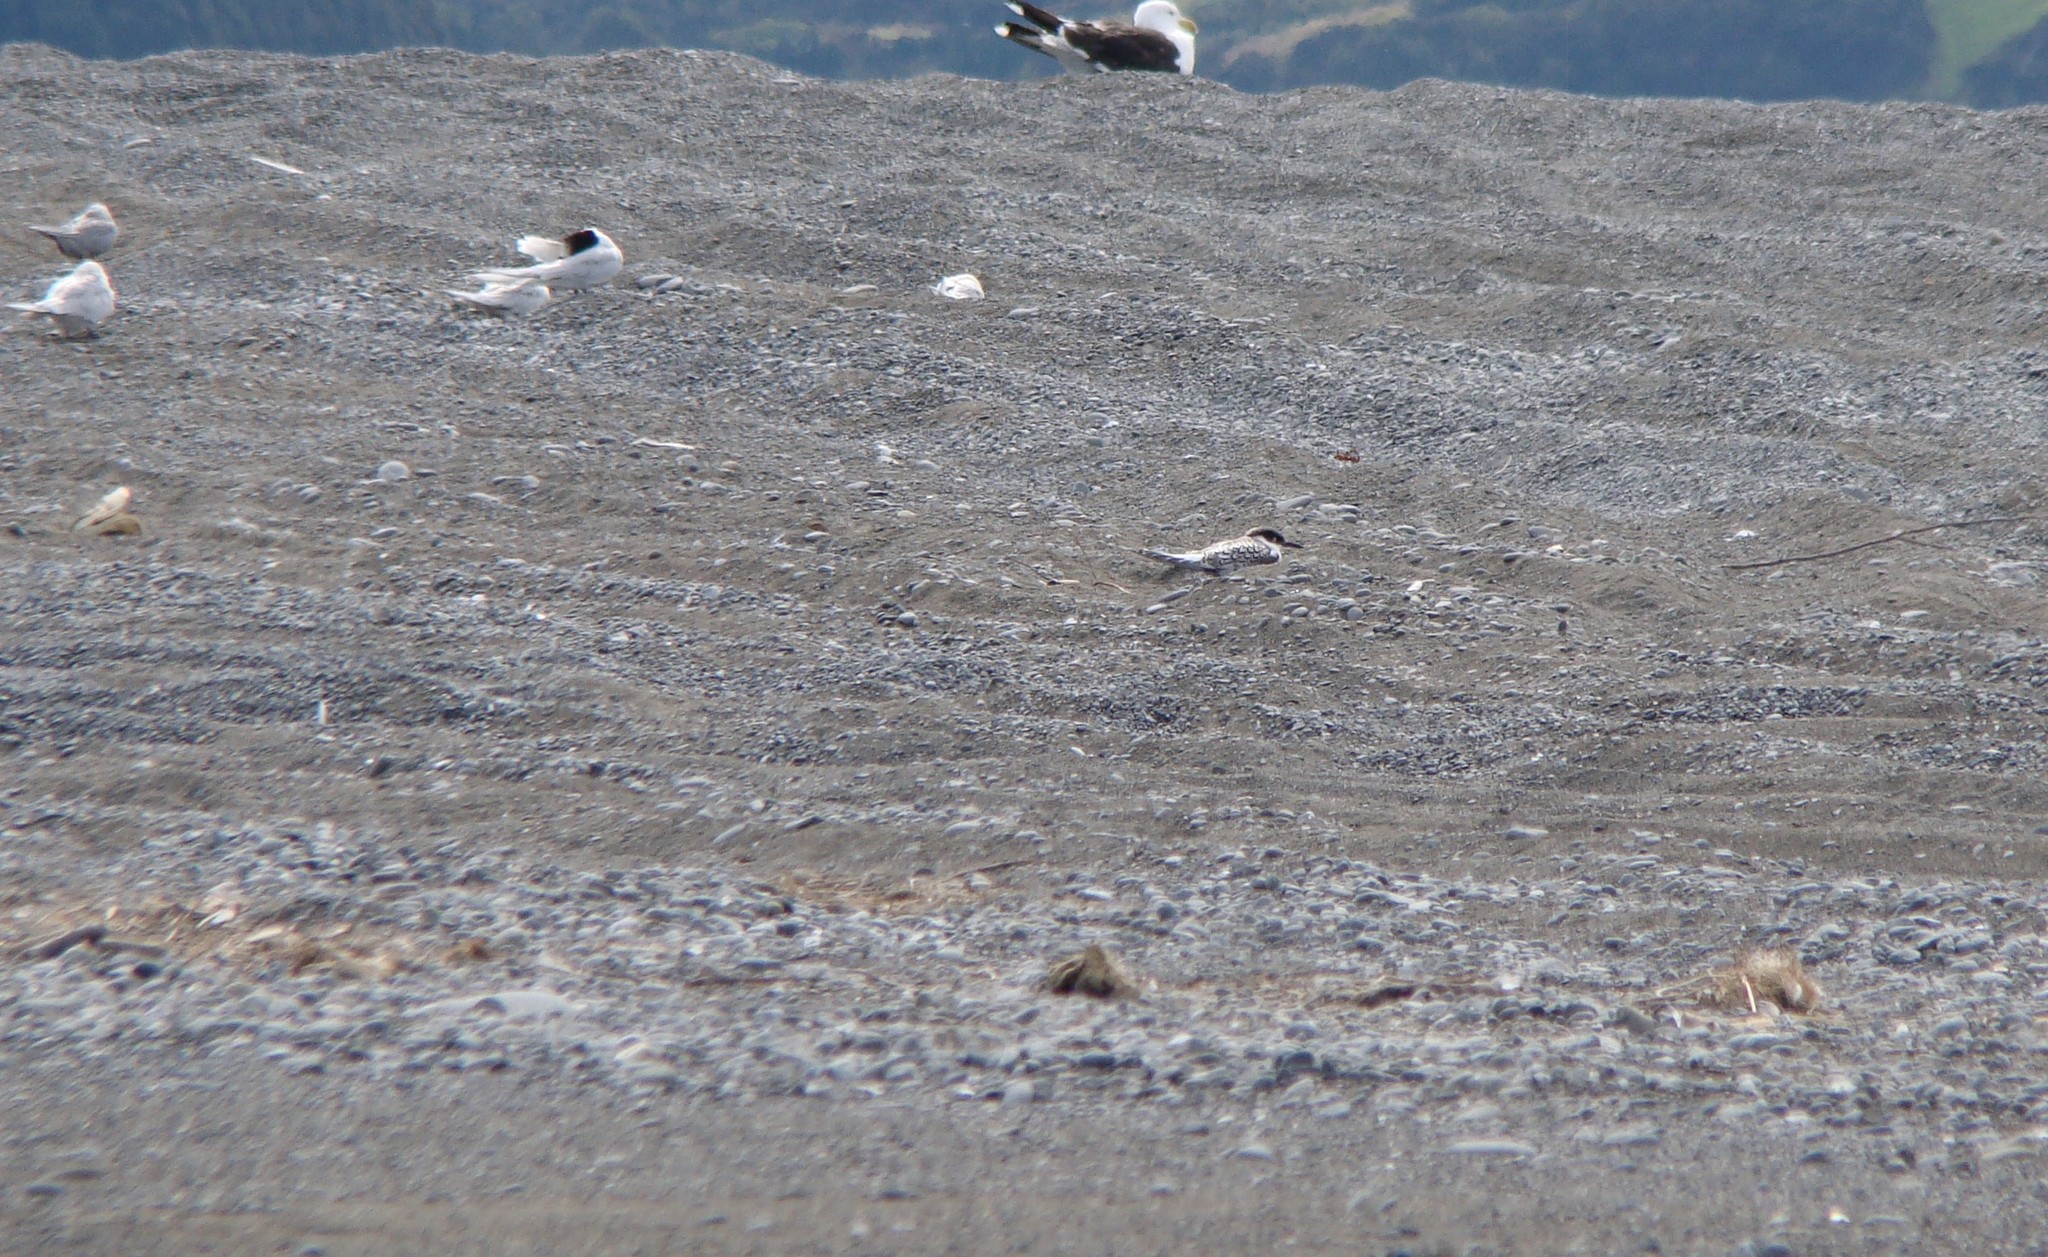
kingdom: Animalia
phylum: Chordata
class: Aves
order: Charadriiformes
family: Laridae
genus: Sterna
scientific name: Sterna striata
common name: White-fronted tern
